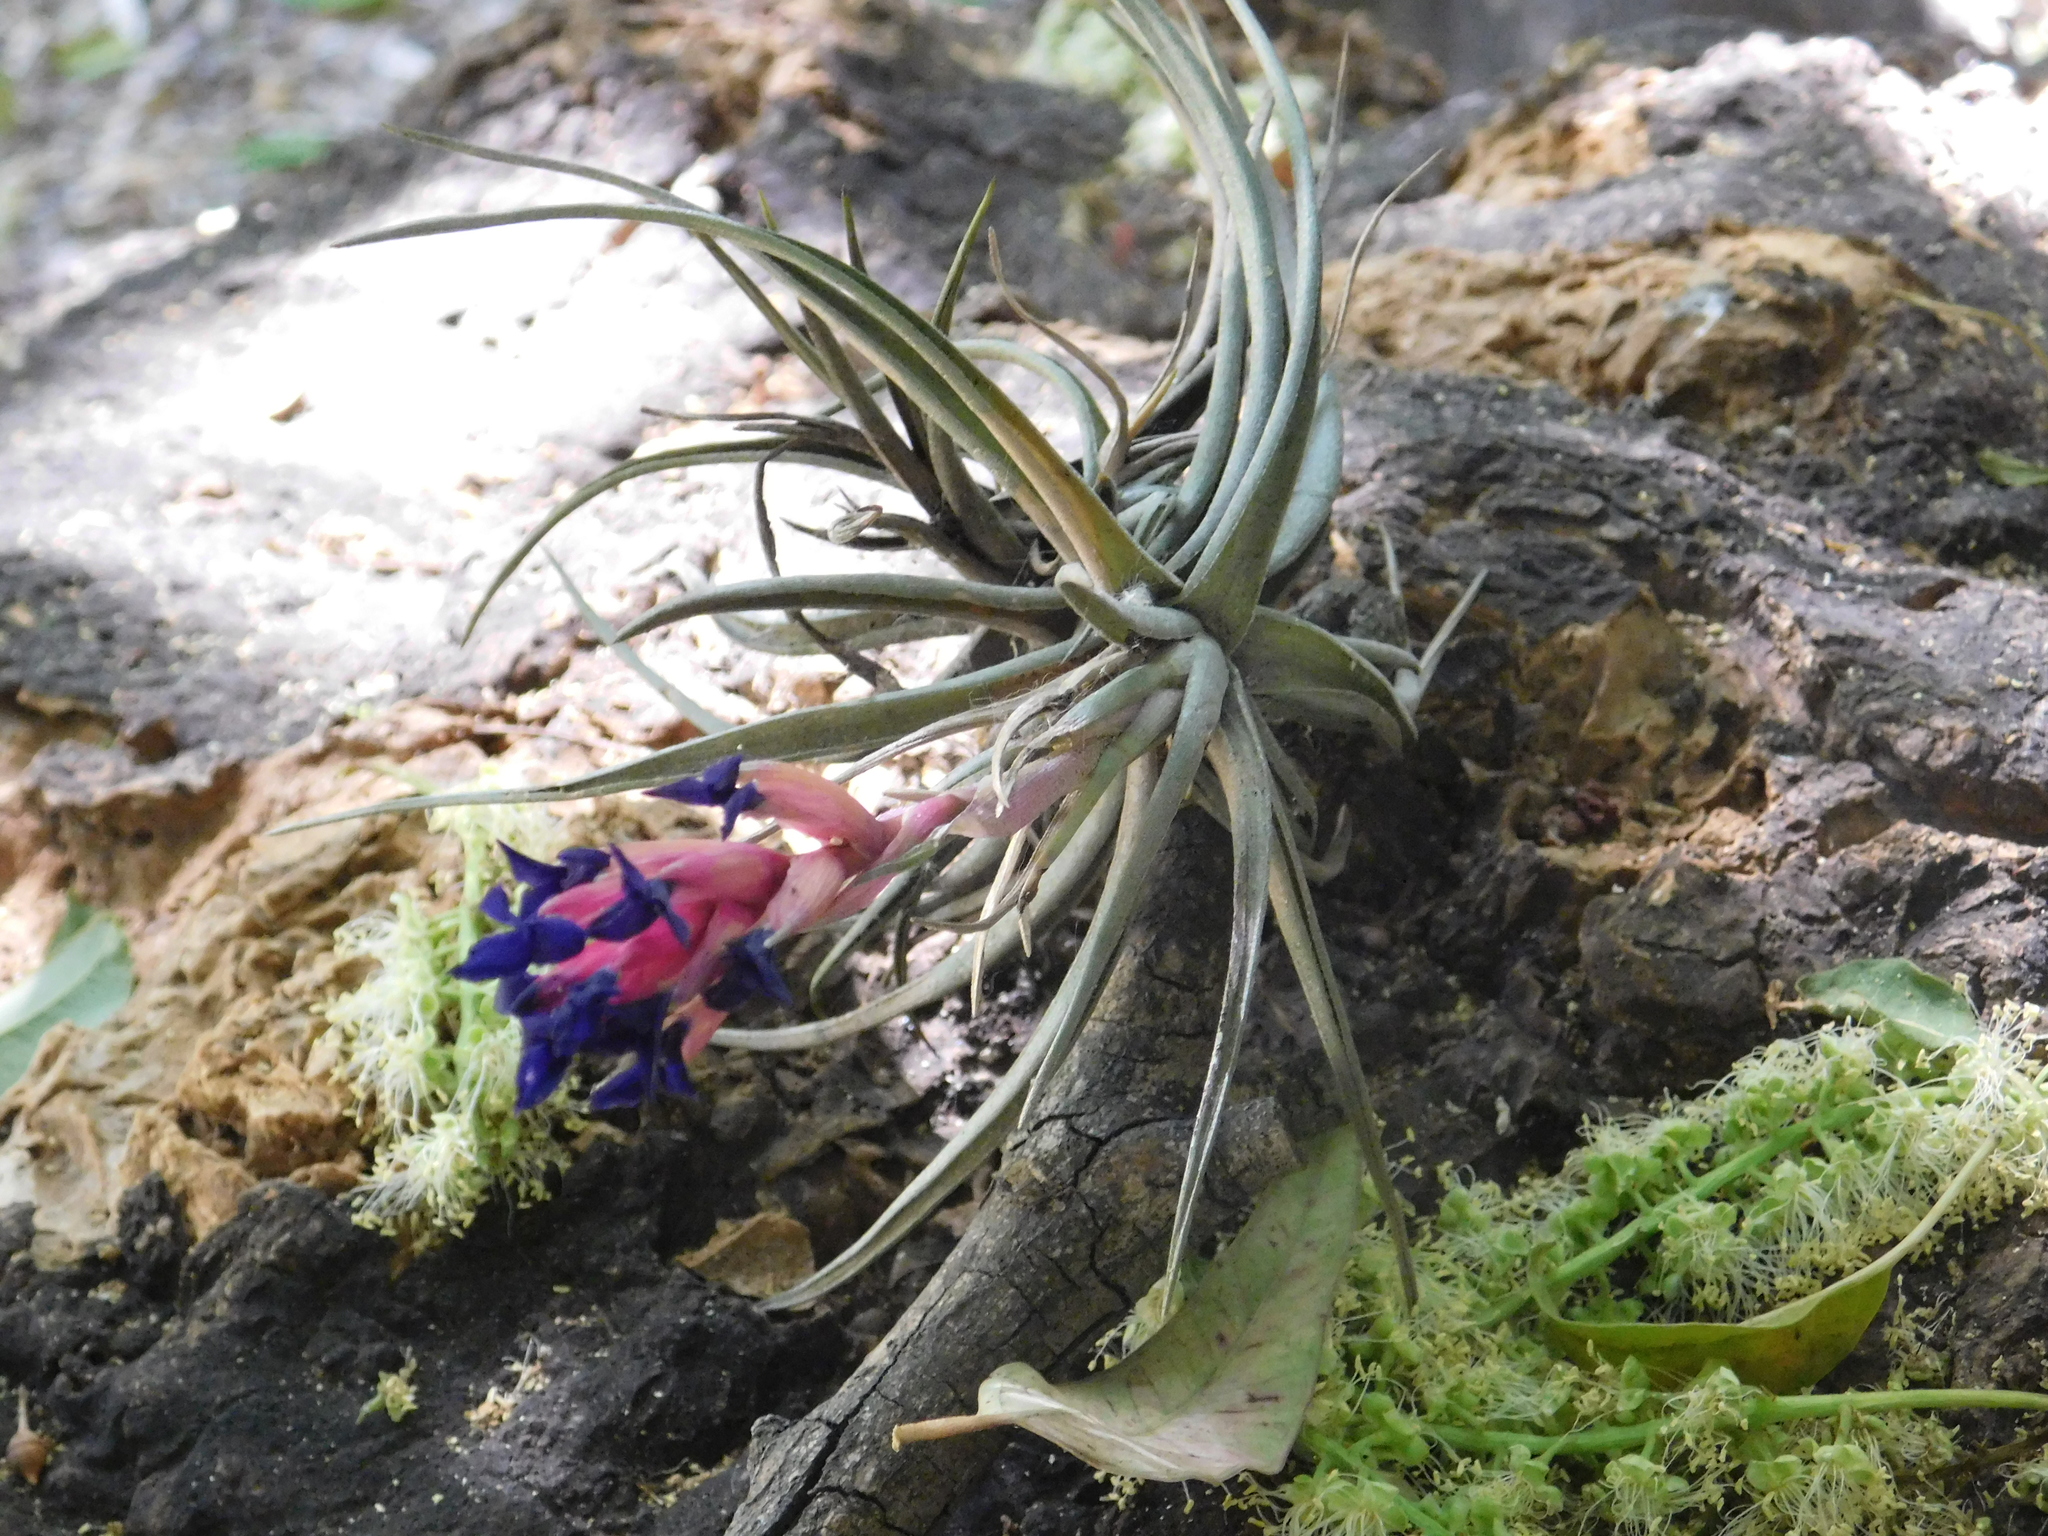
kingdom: Plantae
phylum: Tracheophyta
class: Liliopsida
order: Poales
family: Bromeliaceae
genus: Tillandsia
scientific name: Tillandsia aeranthos
